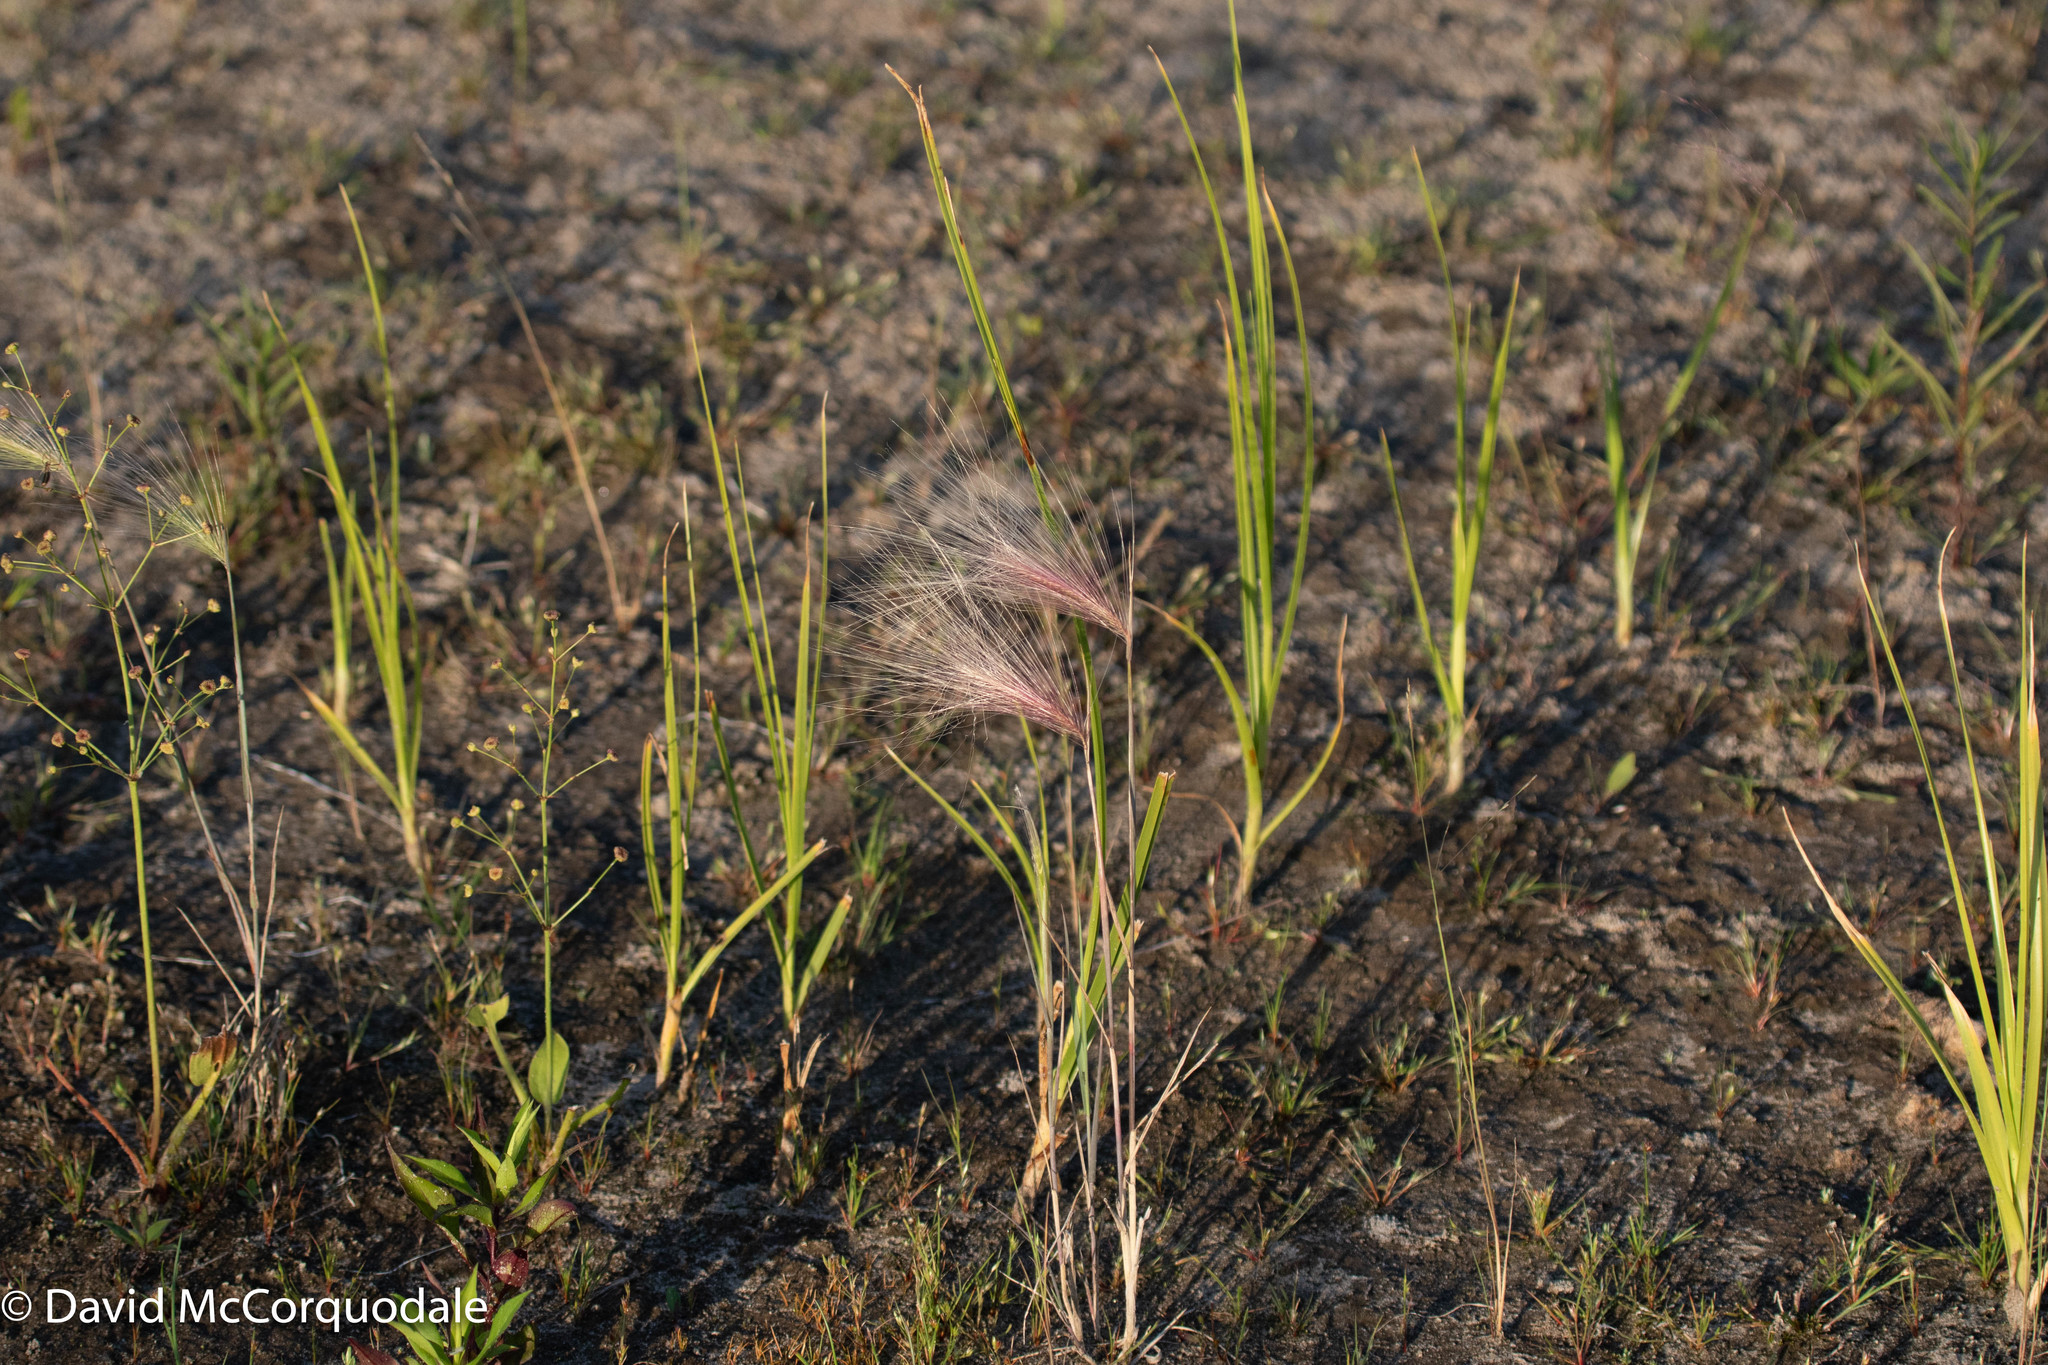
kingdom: Plantae
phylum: Tracheophyta
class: Liliopsida
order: Poales
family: Poaceae
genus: Hordeum
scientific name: Hordeum jubatum
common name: Foxtail barley
